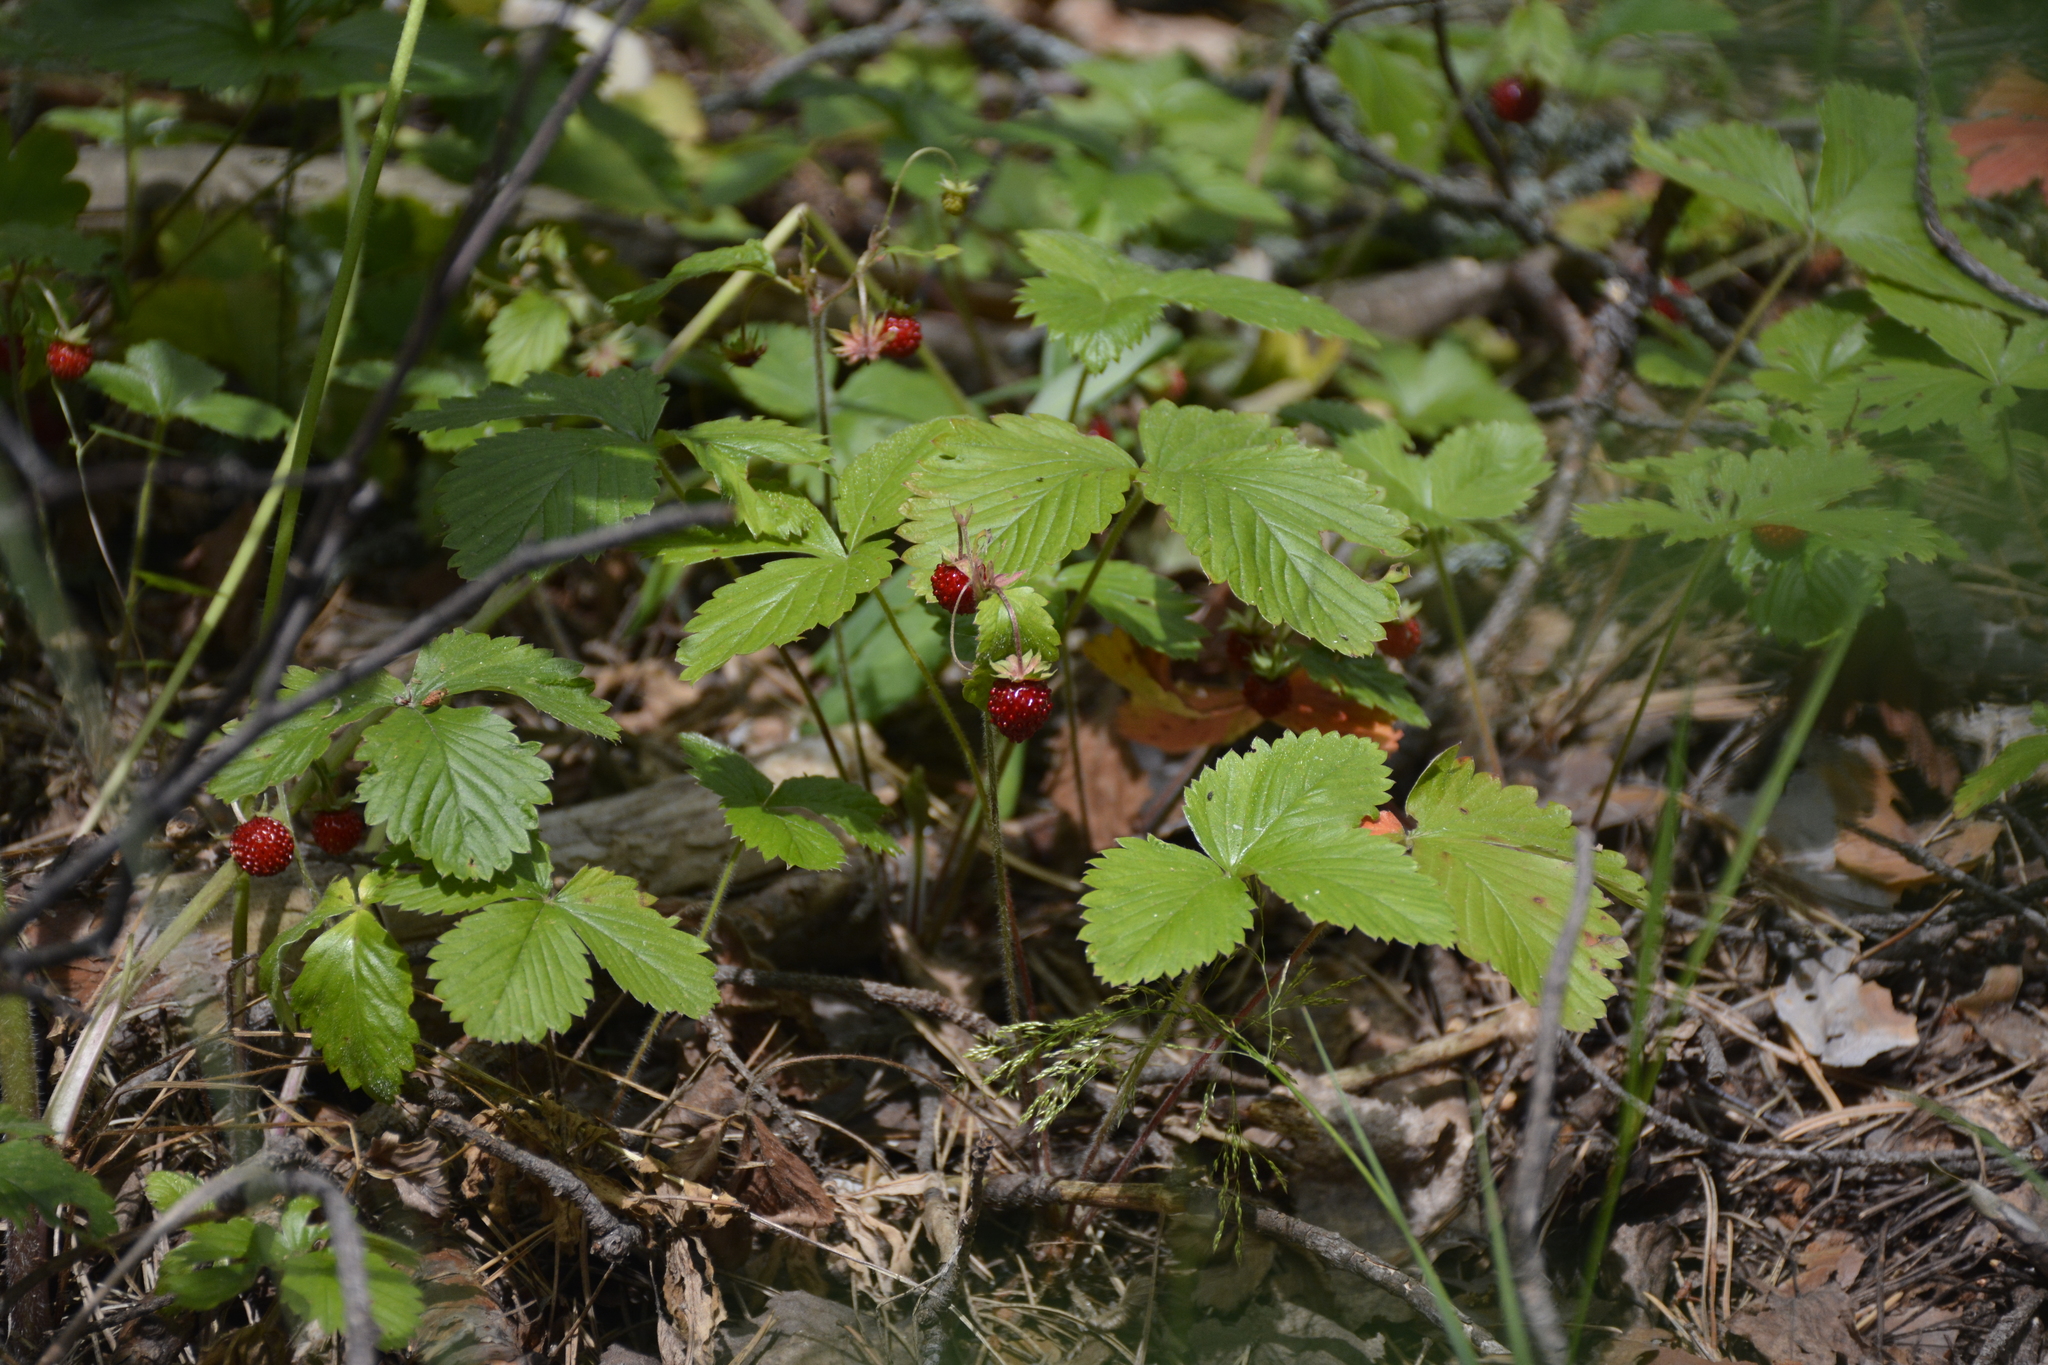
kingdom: Plantae
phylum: Tracheophyta
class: Magnoliopsida
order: Rosales
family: Rosaceae
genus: Fragaria
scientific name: Fragaria vesca
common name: Wild strawberry
